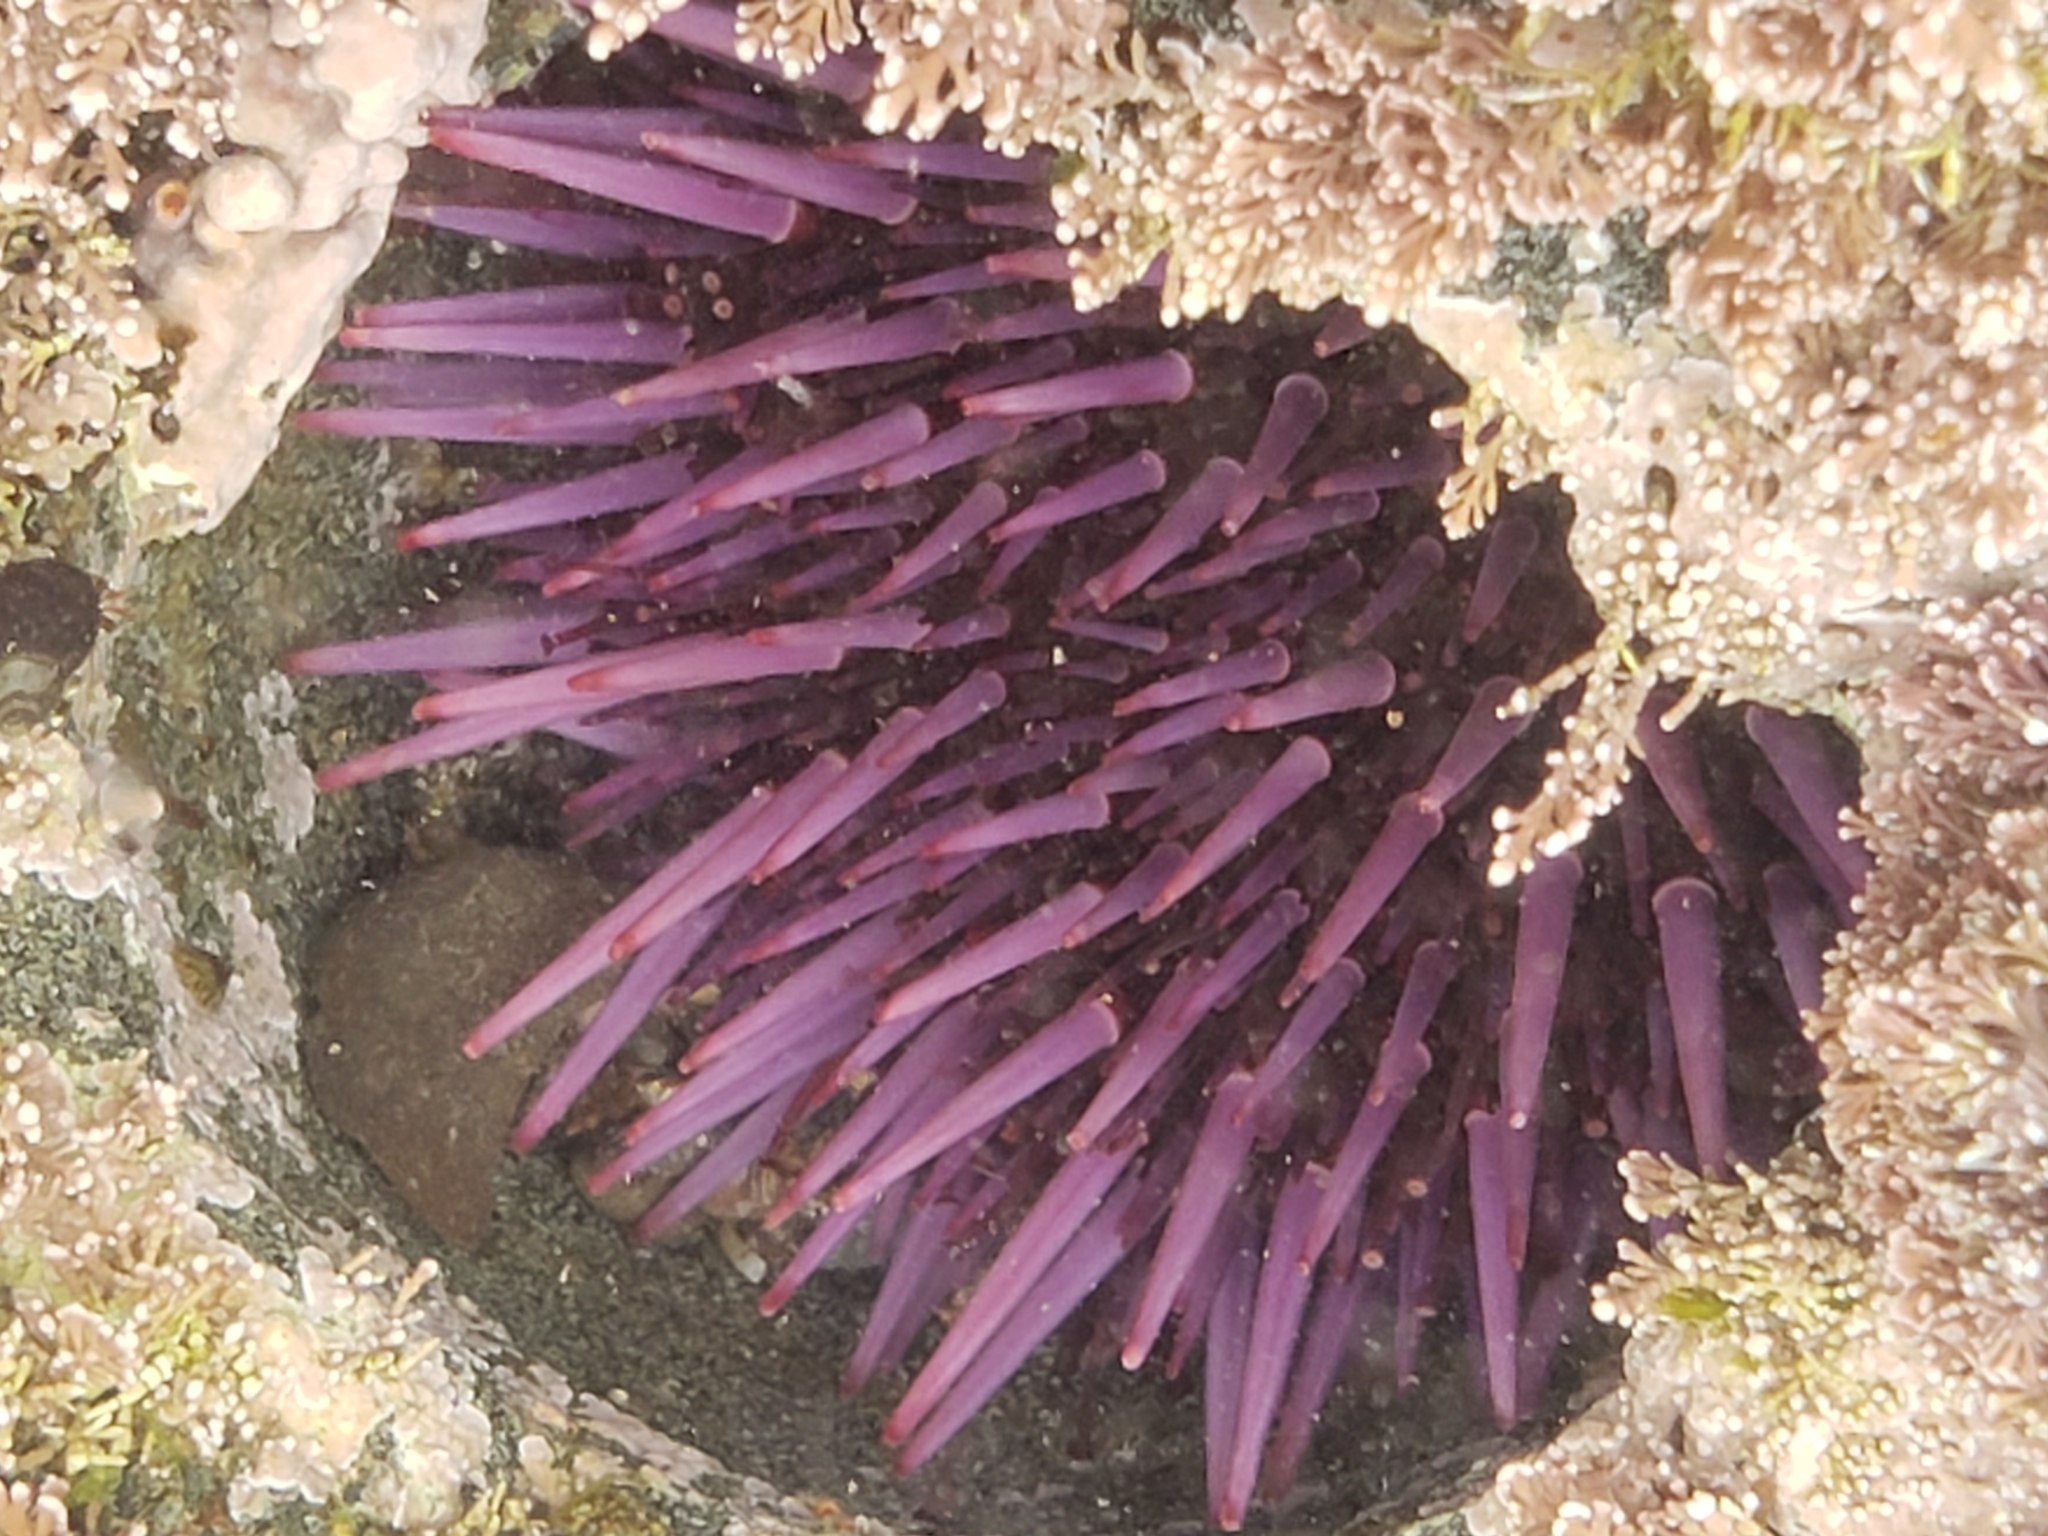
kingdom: Animalia
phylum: Echinodermata
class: Echinoidea
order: Camarodonta
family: Strongylocentrotidae
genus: Strongylocentrotus
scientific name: Strongylocentrotus purpuratus
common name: Purple sea urchin
